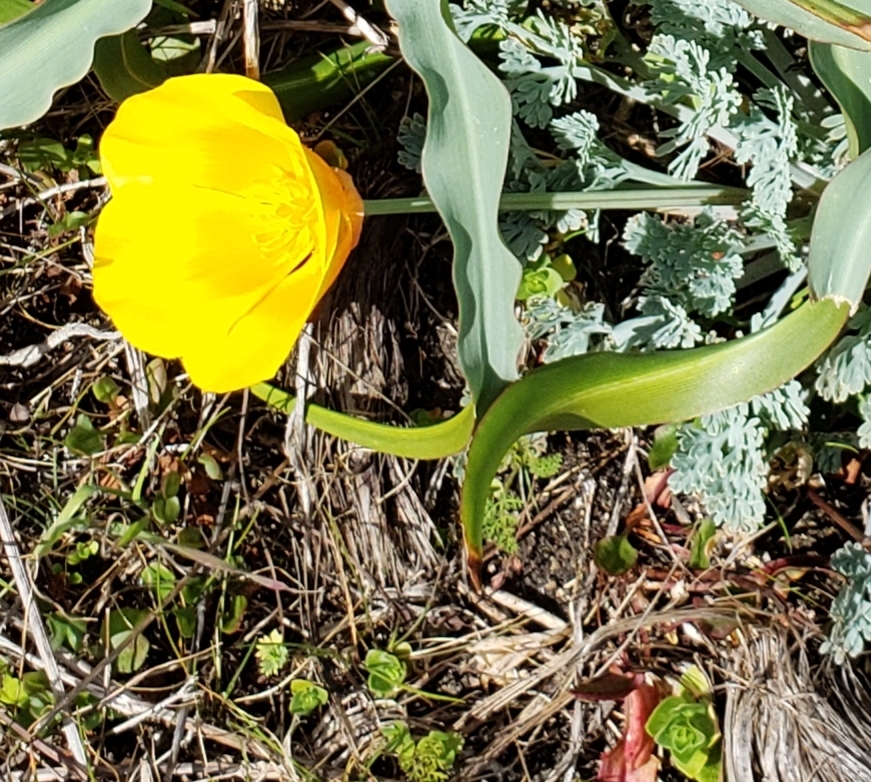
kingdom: Plantae
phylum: Tracheophyta
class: Magnoliopsida
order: Ranunculales
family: Papaveraceae
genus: Eschscholzia
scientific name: Eschscholzia californica
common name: California poppy
